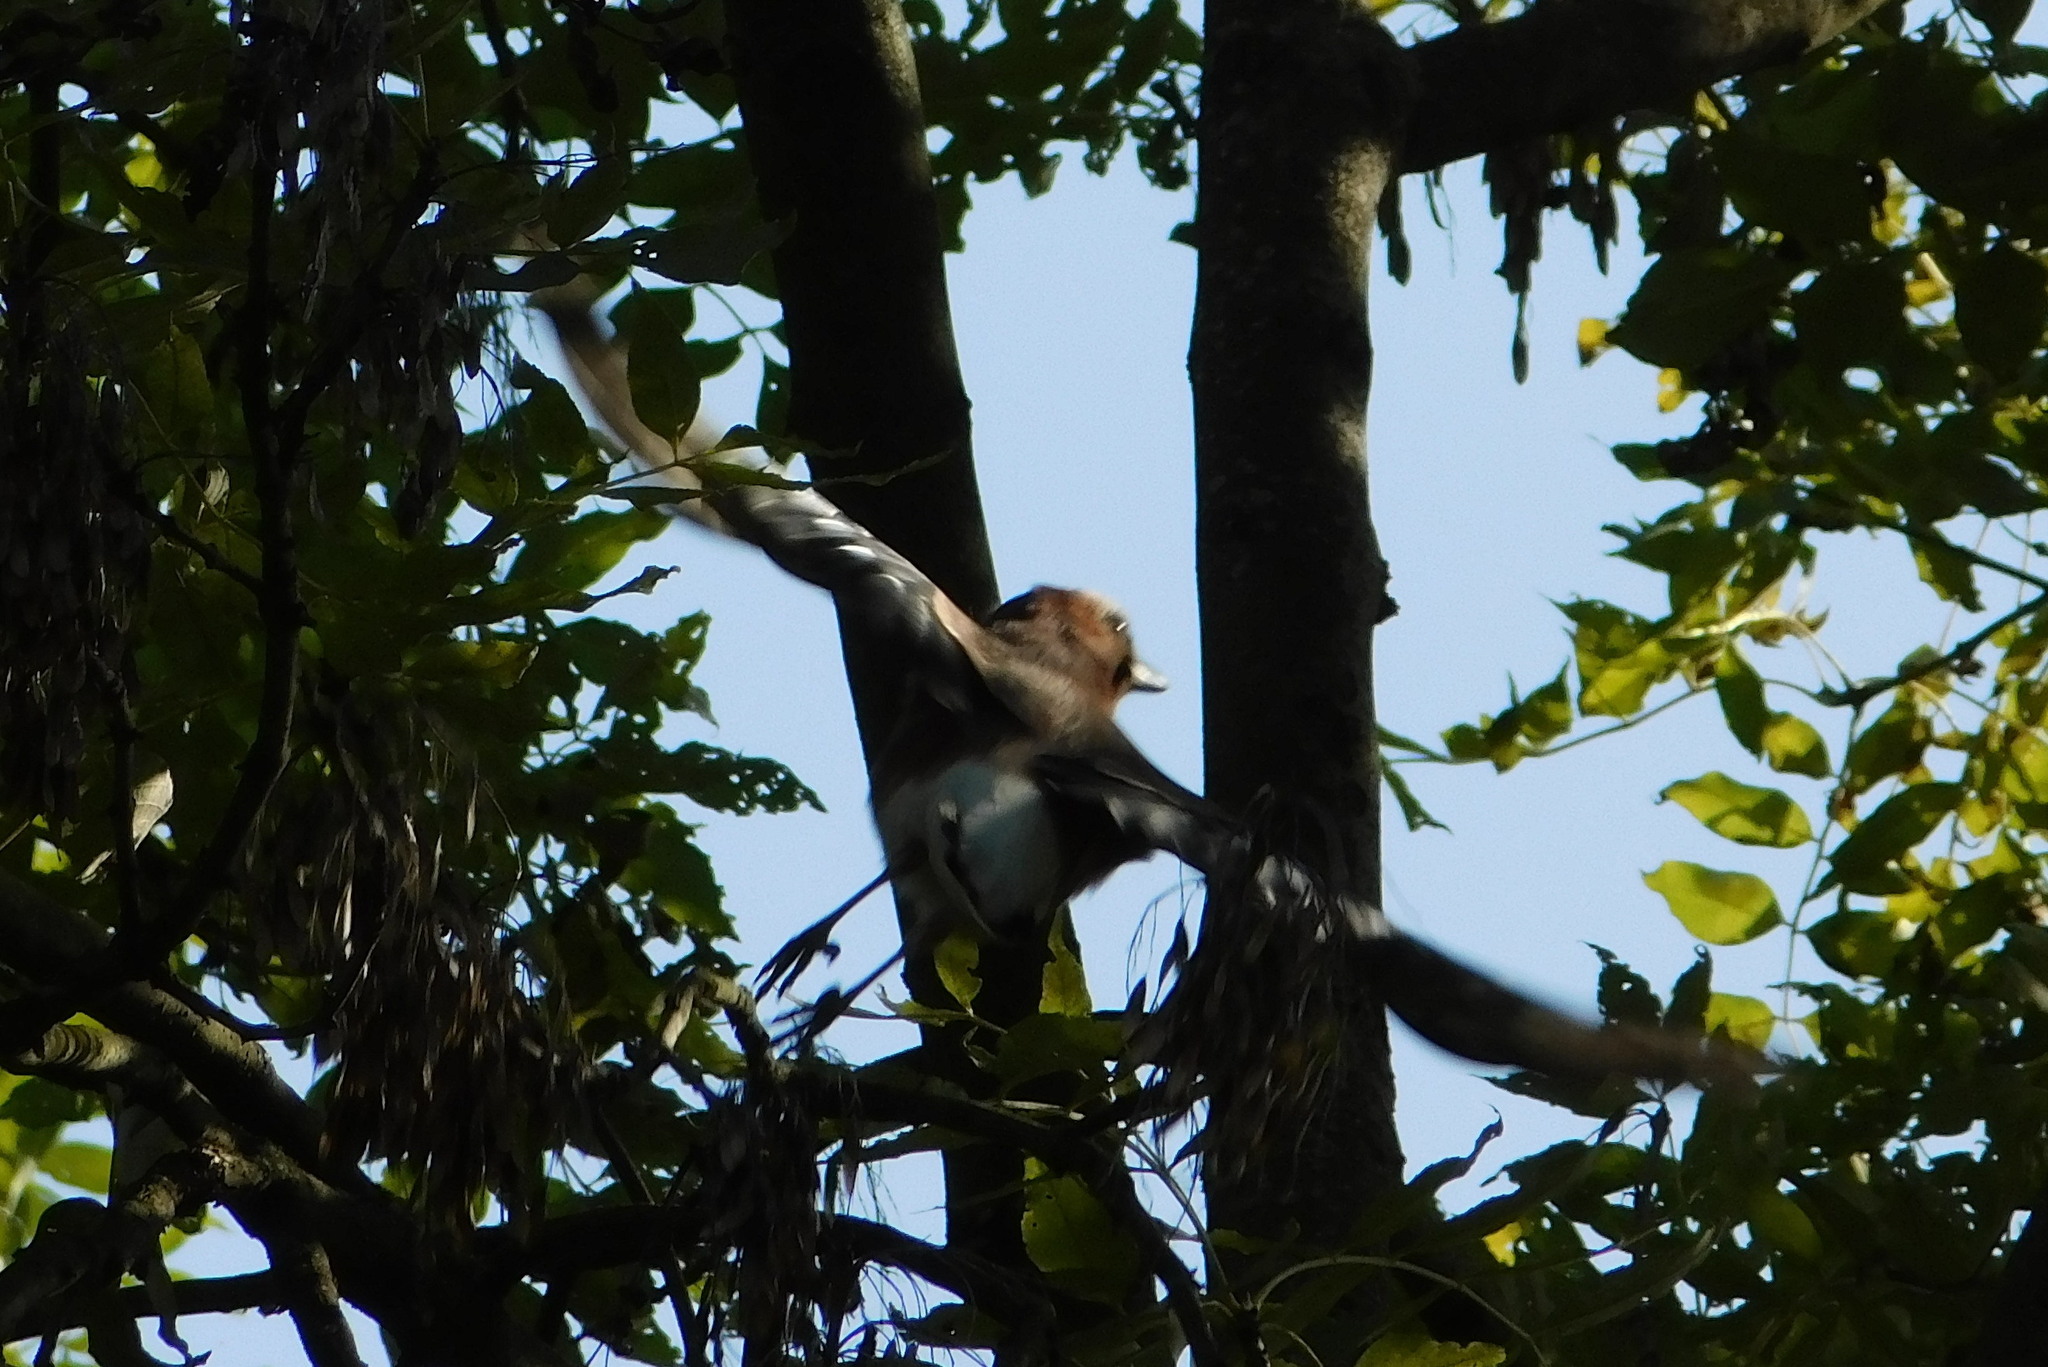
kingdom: Animalia
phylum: Chordata
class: Aves
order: Passeriformes
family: Corvidae
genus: Garrulus
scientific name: Garrulus glandarius
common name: Eurasian jay
